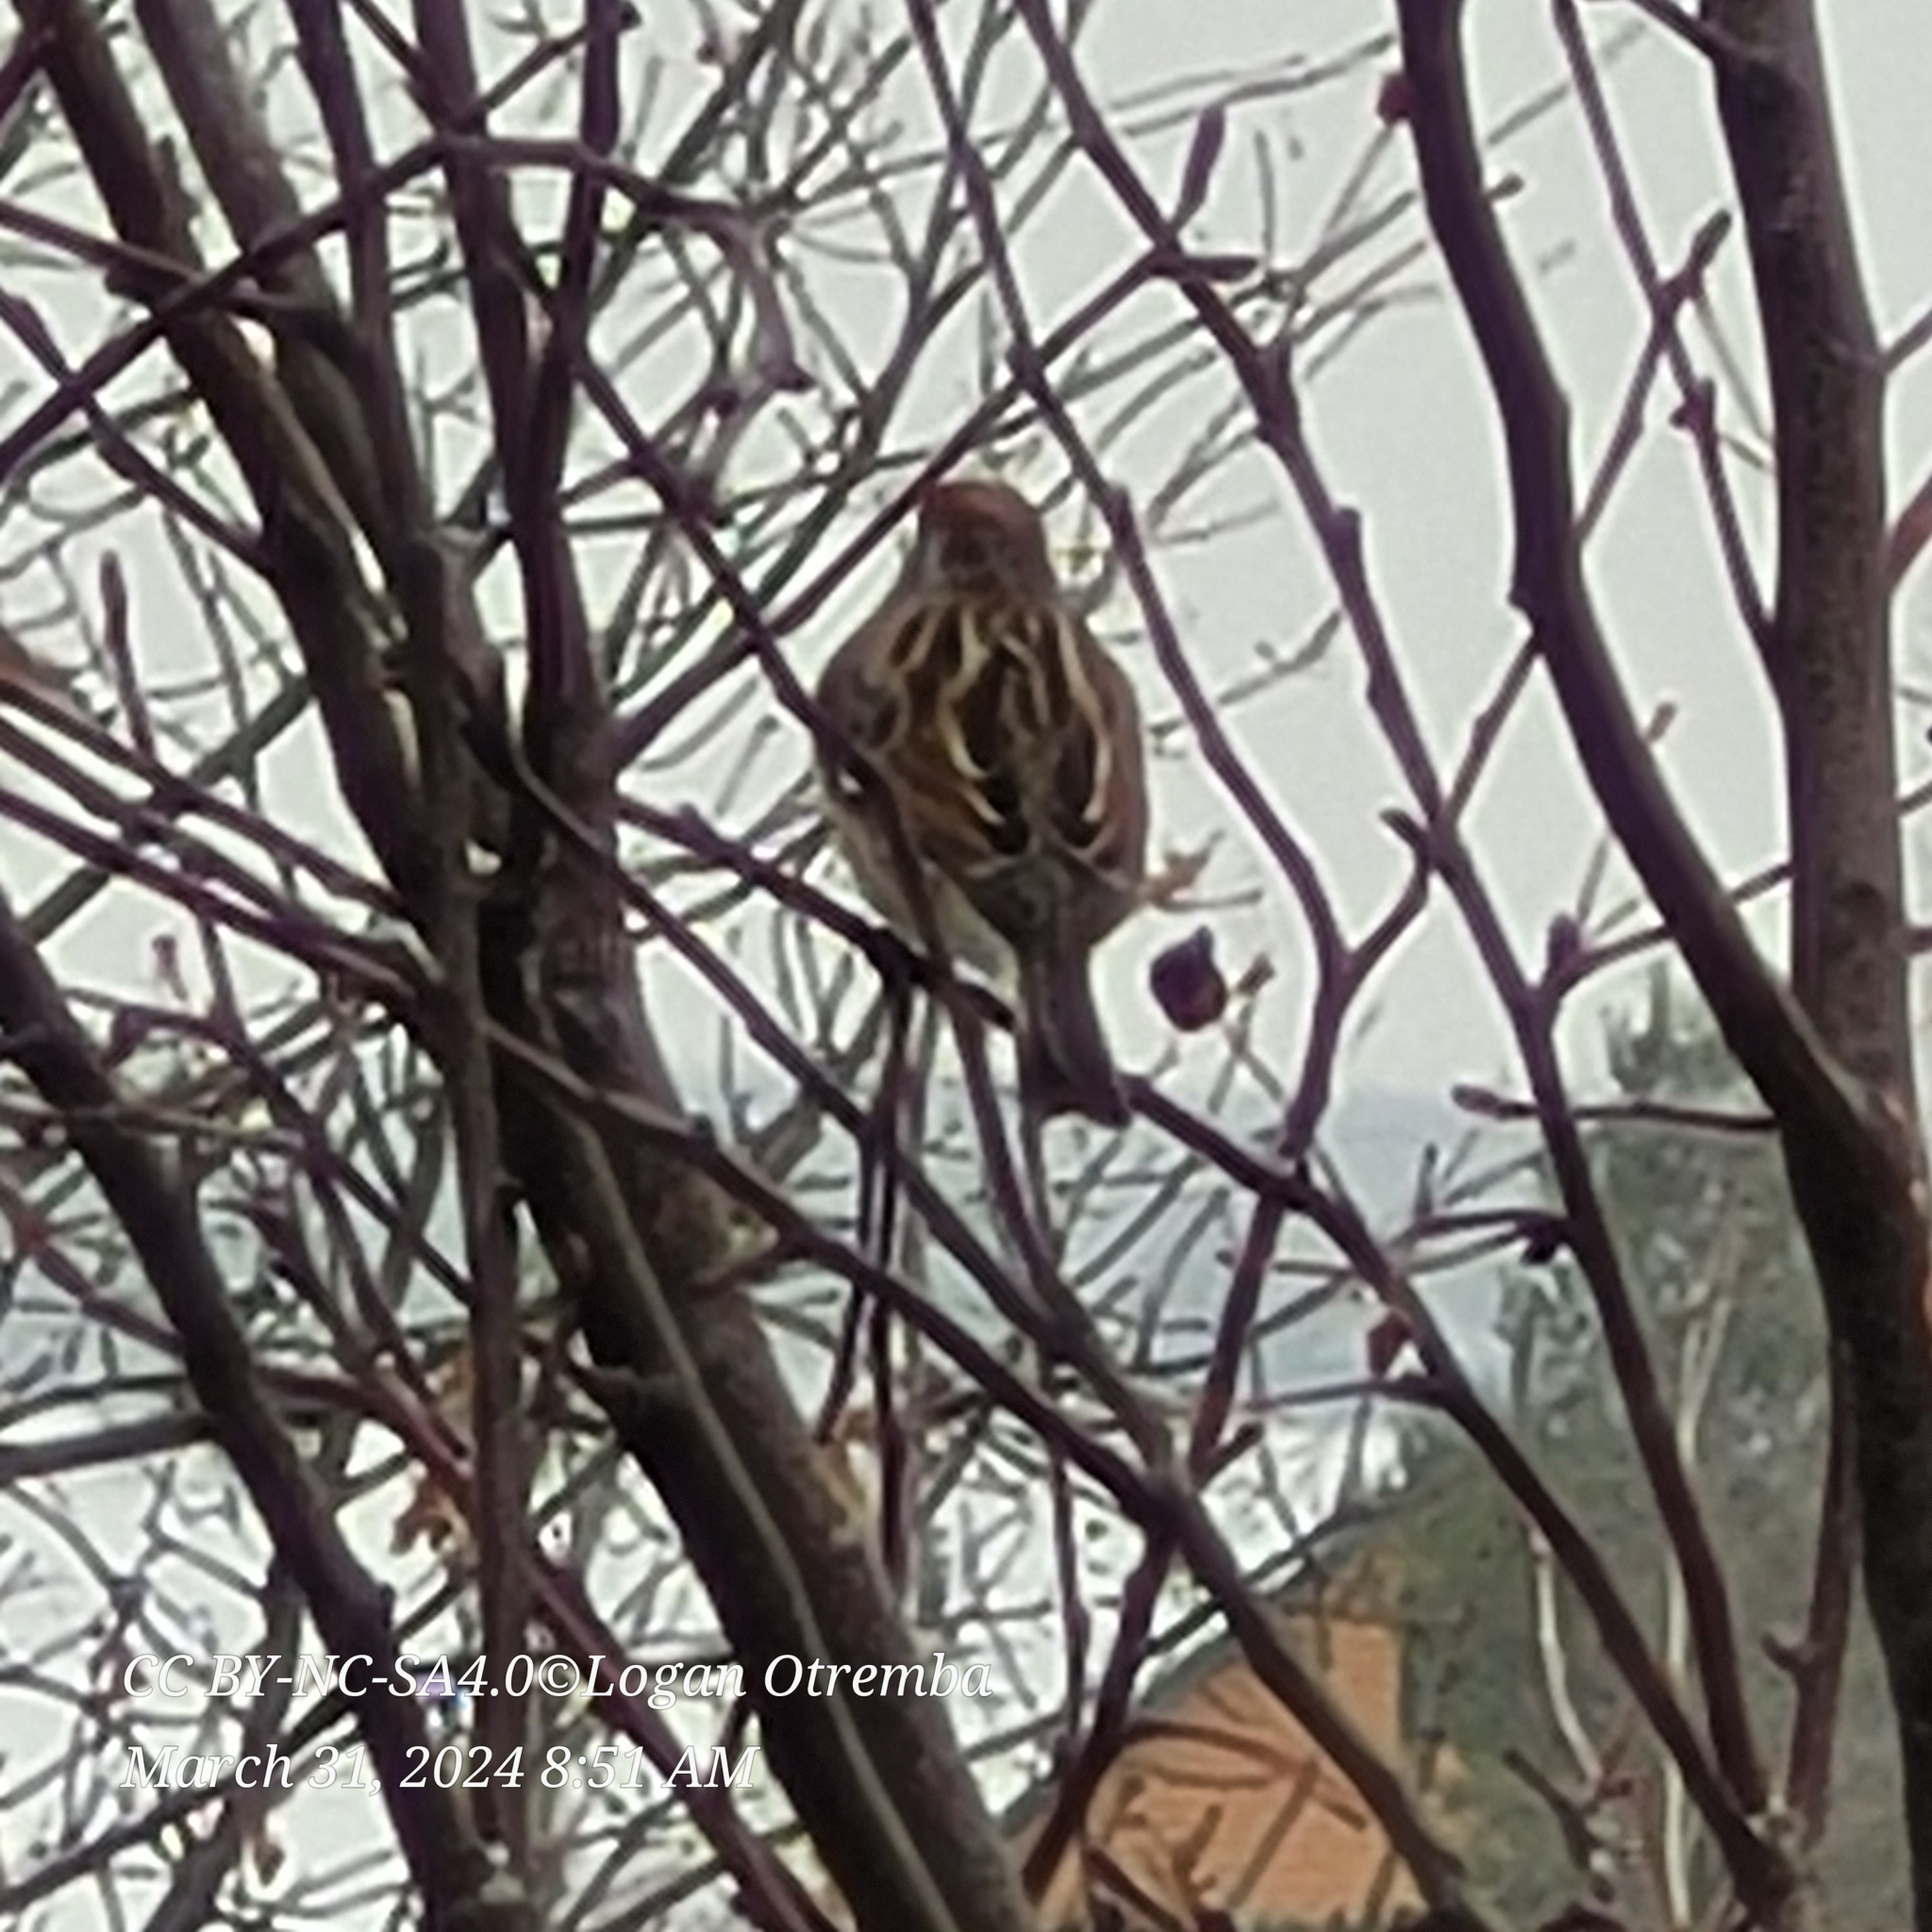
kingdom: Animalia
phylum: Chordata
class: Aves
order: Passeriformes
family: Passerellidae
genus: Spizelloides
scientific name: Spizelloides arborea
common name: American tree sparrow
